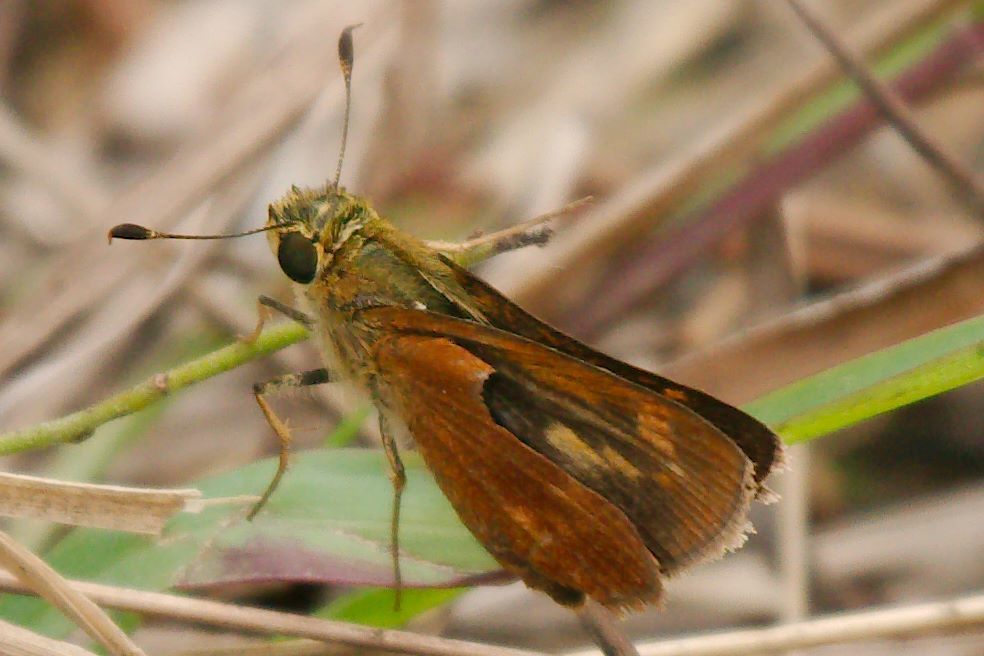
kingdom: Animalia
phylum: Arthropoda
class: Insecta
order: Lepidoptera
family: Hesperiidae
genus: Polites
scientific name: Polites otho
